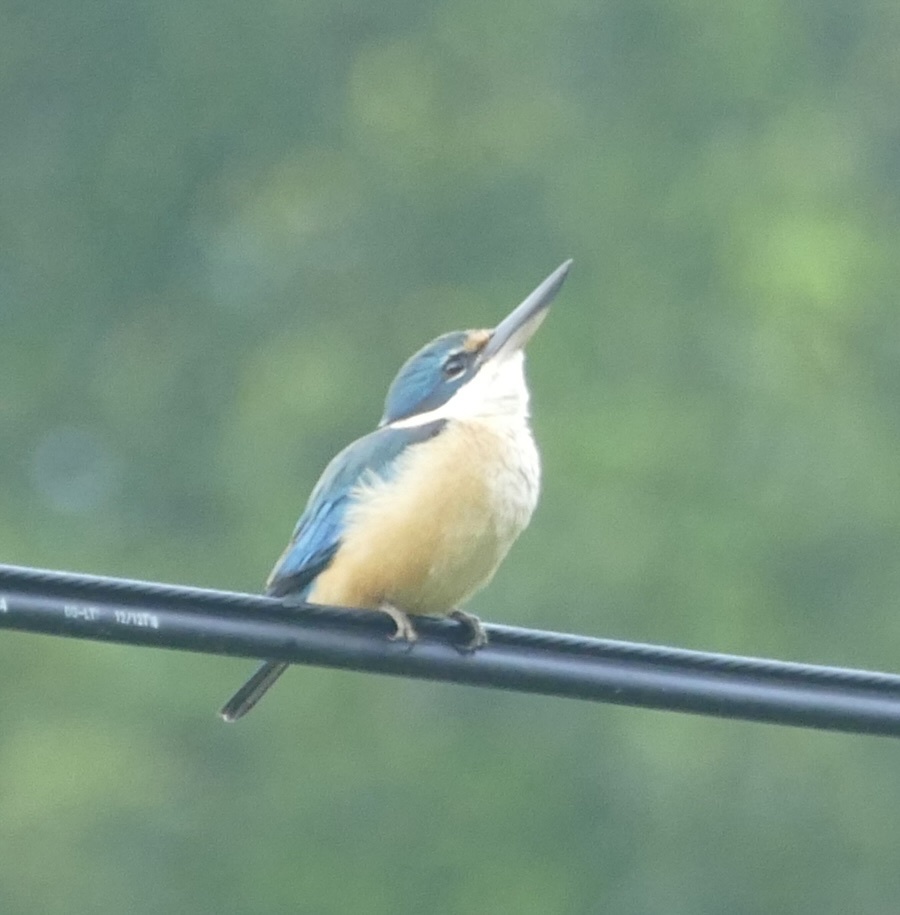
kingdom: Animalia
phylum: Chordata
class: Aves
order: Coraciiformes
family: Alcedinidae
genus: Todiramphus
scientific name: Todiramphus sanctus
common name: Sacred kingfisher
